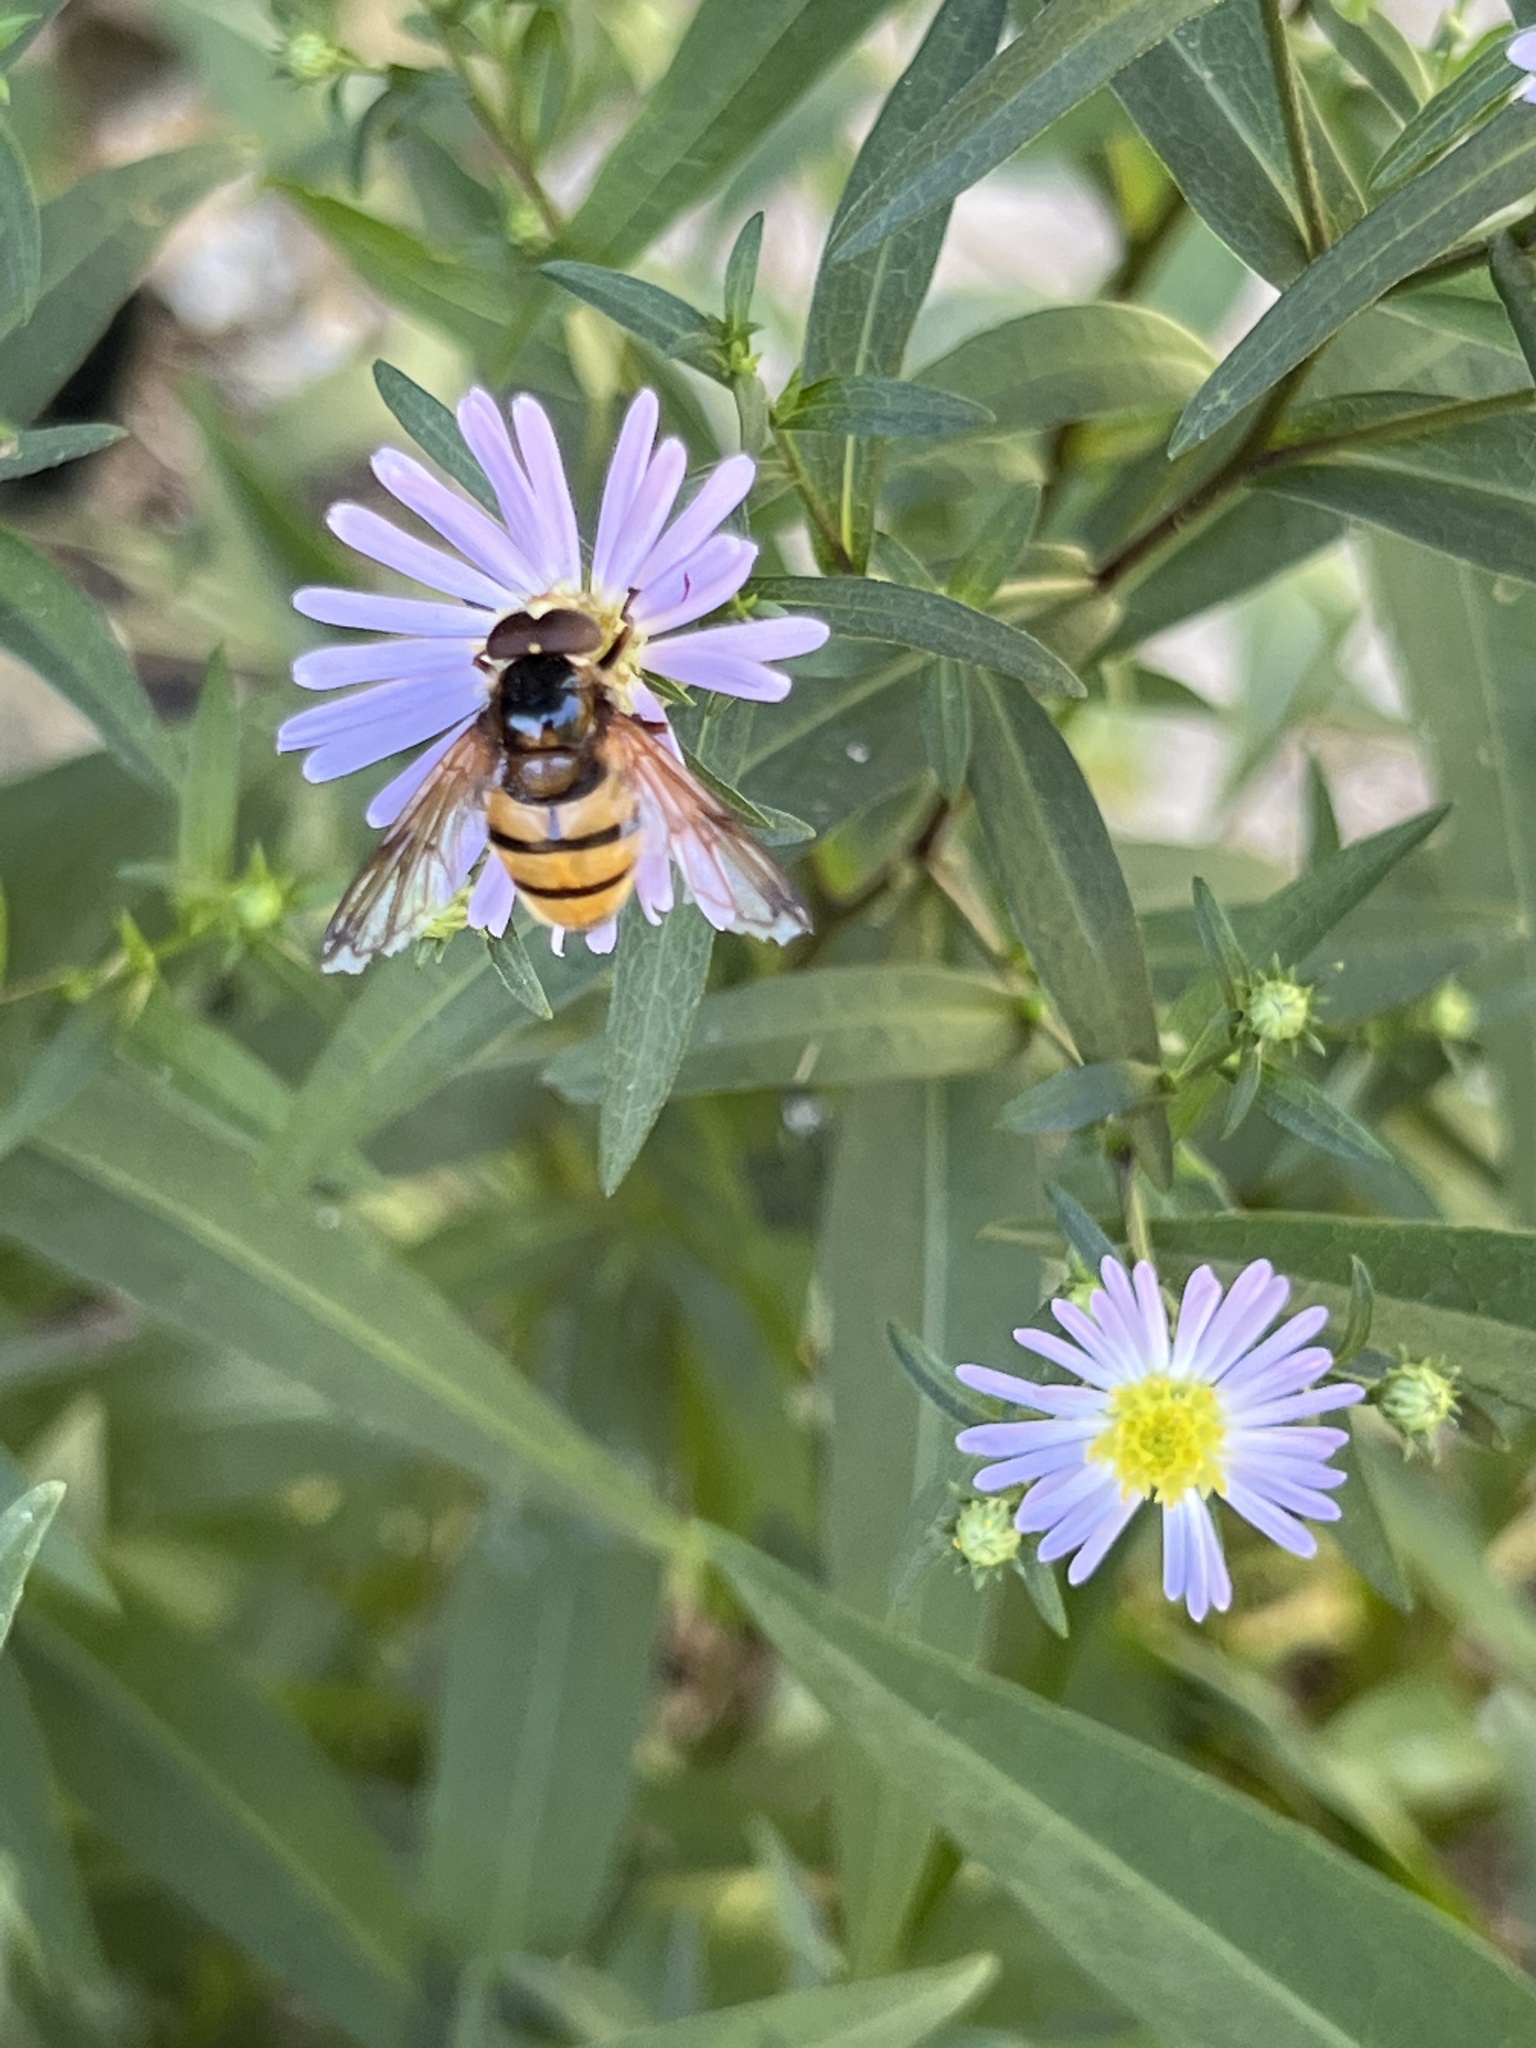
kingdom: Animalia
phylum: Arthropoda
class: Insecta
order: Diptera
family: Syrphidae
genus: Volucella
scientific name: Volucella inanis
